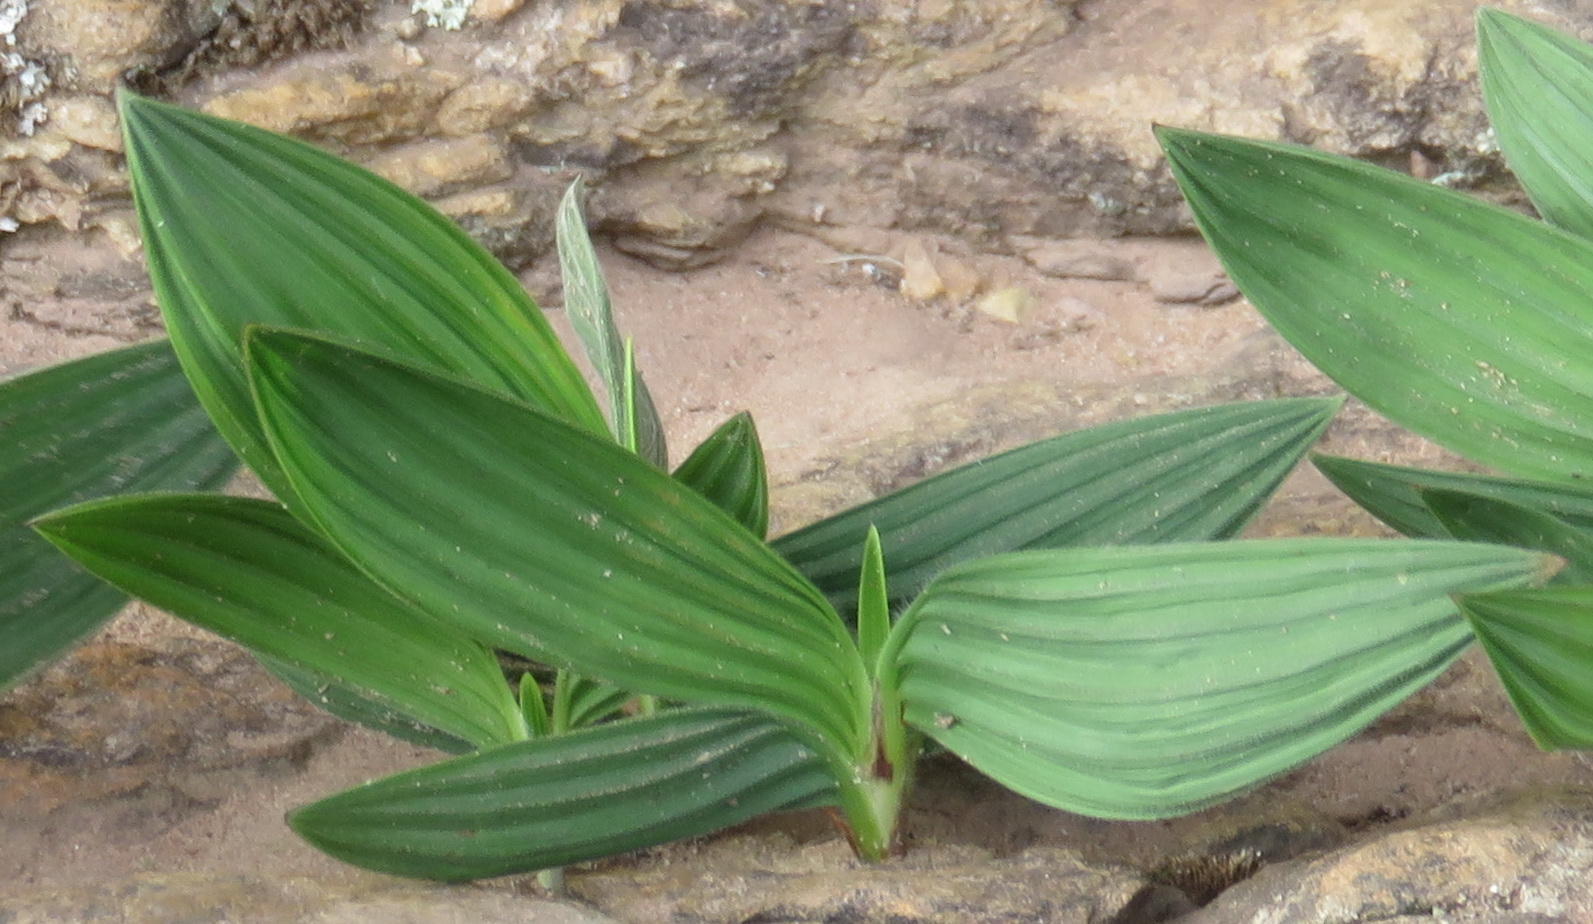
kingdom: Plantae
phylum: Tracheophyta
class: Liliopsida
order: Asparagales
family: Iridaceae
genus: Babiana
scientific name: Babiana villosula
